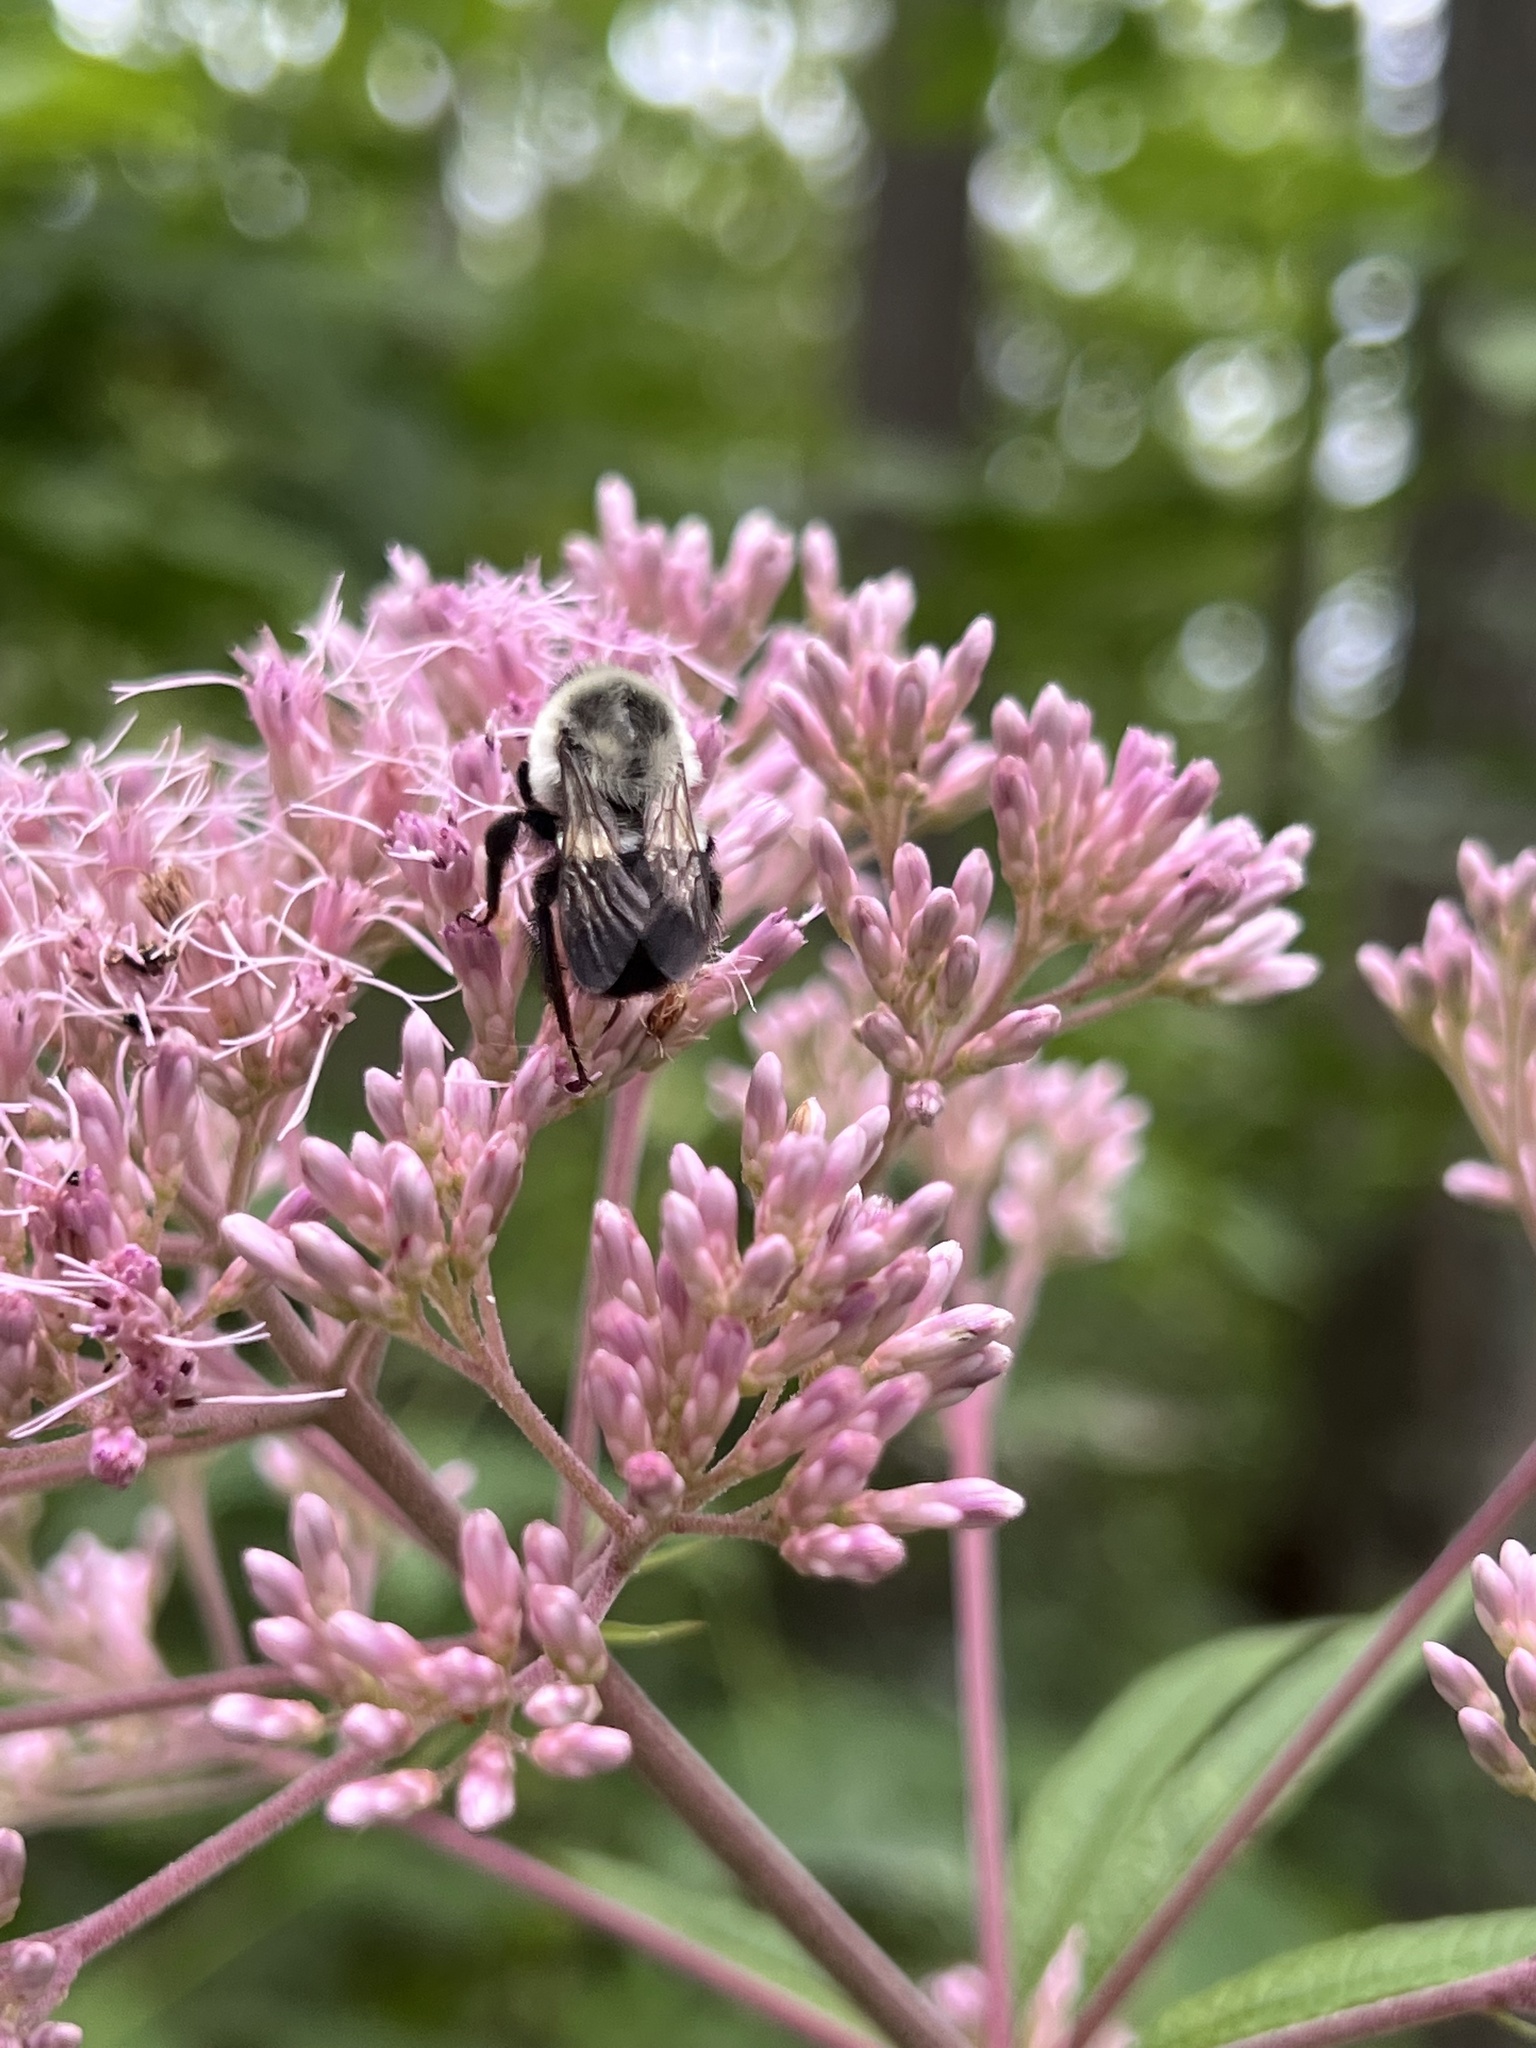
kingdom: Animalia
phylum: Arthropoda
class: Insecta
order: Hymenoptera
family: Apidae
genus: Bombus
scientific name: Bombus impatiens
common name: Common eastern bumble bee
